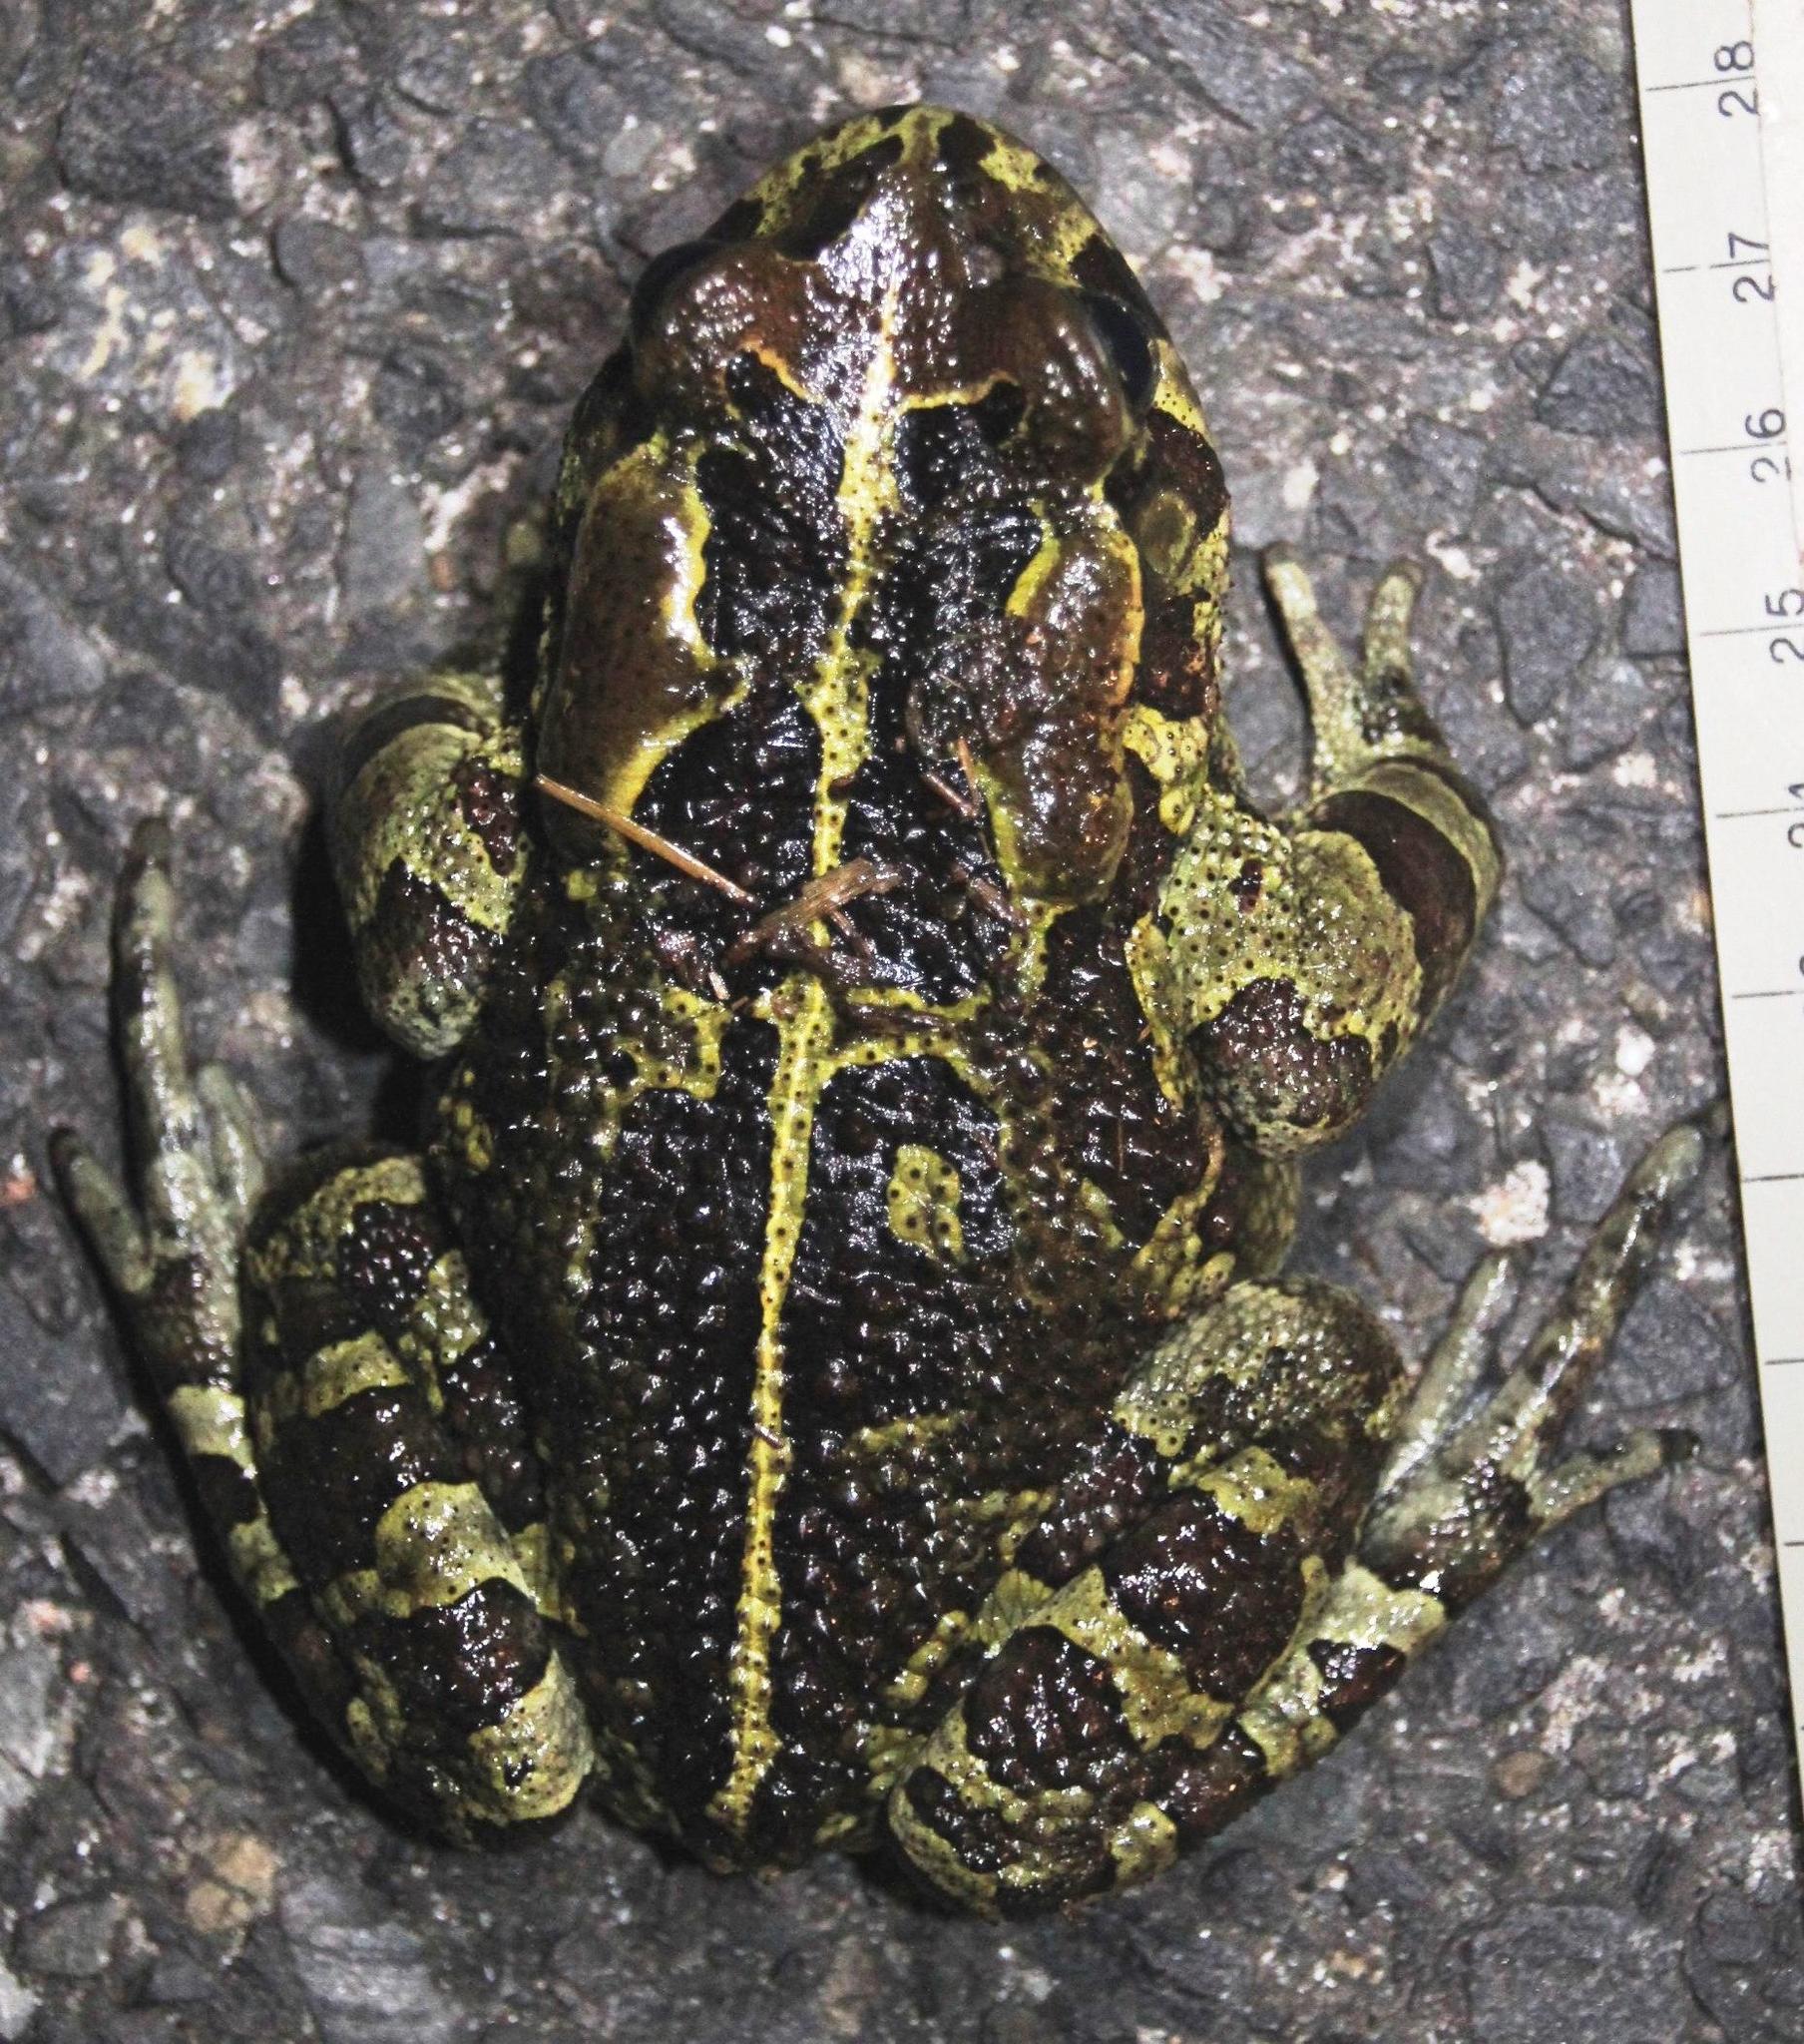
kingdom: Animalia
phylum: Chordata
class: Amphibia
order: Anura
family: Bufonidae
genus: Sclerophrys
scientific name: Sclerophrys pantherina
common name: Panther toad
